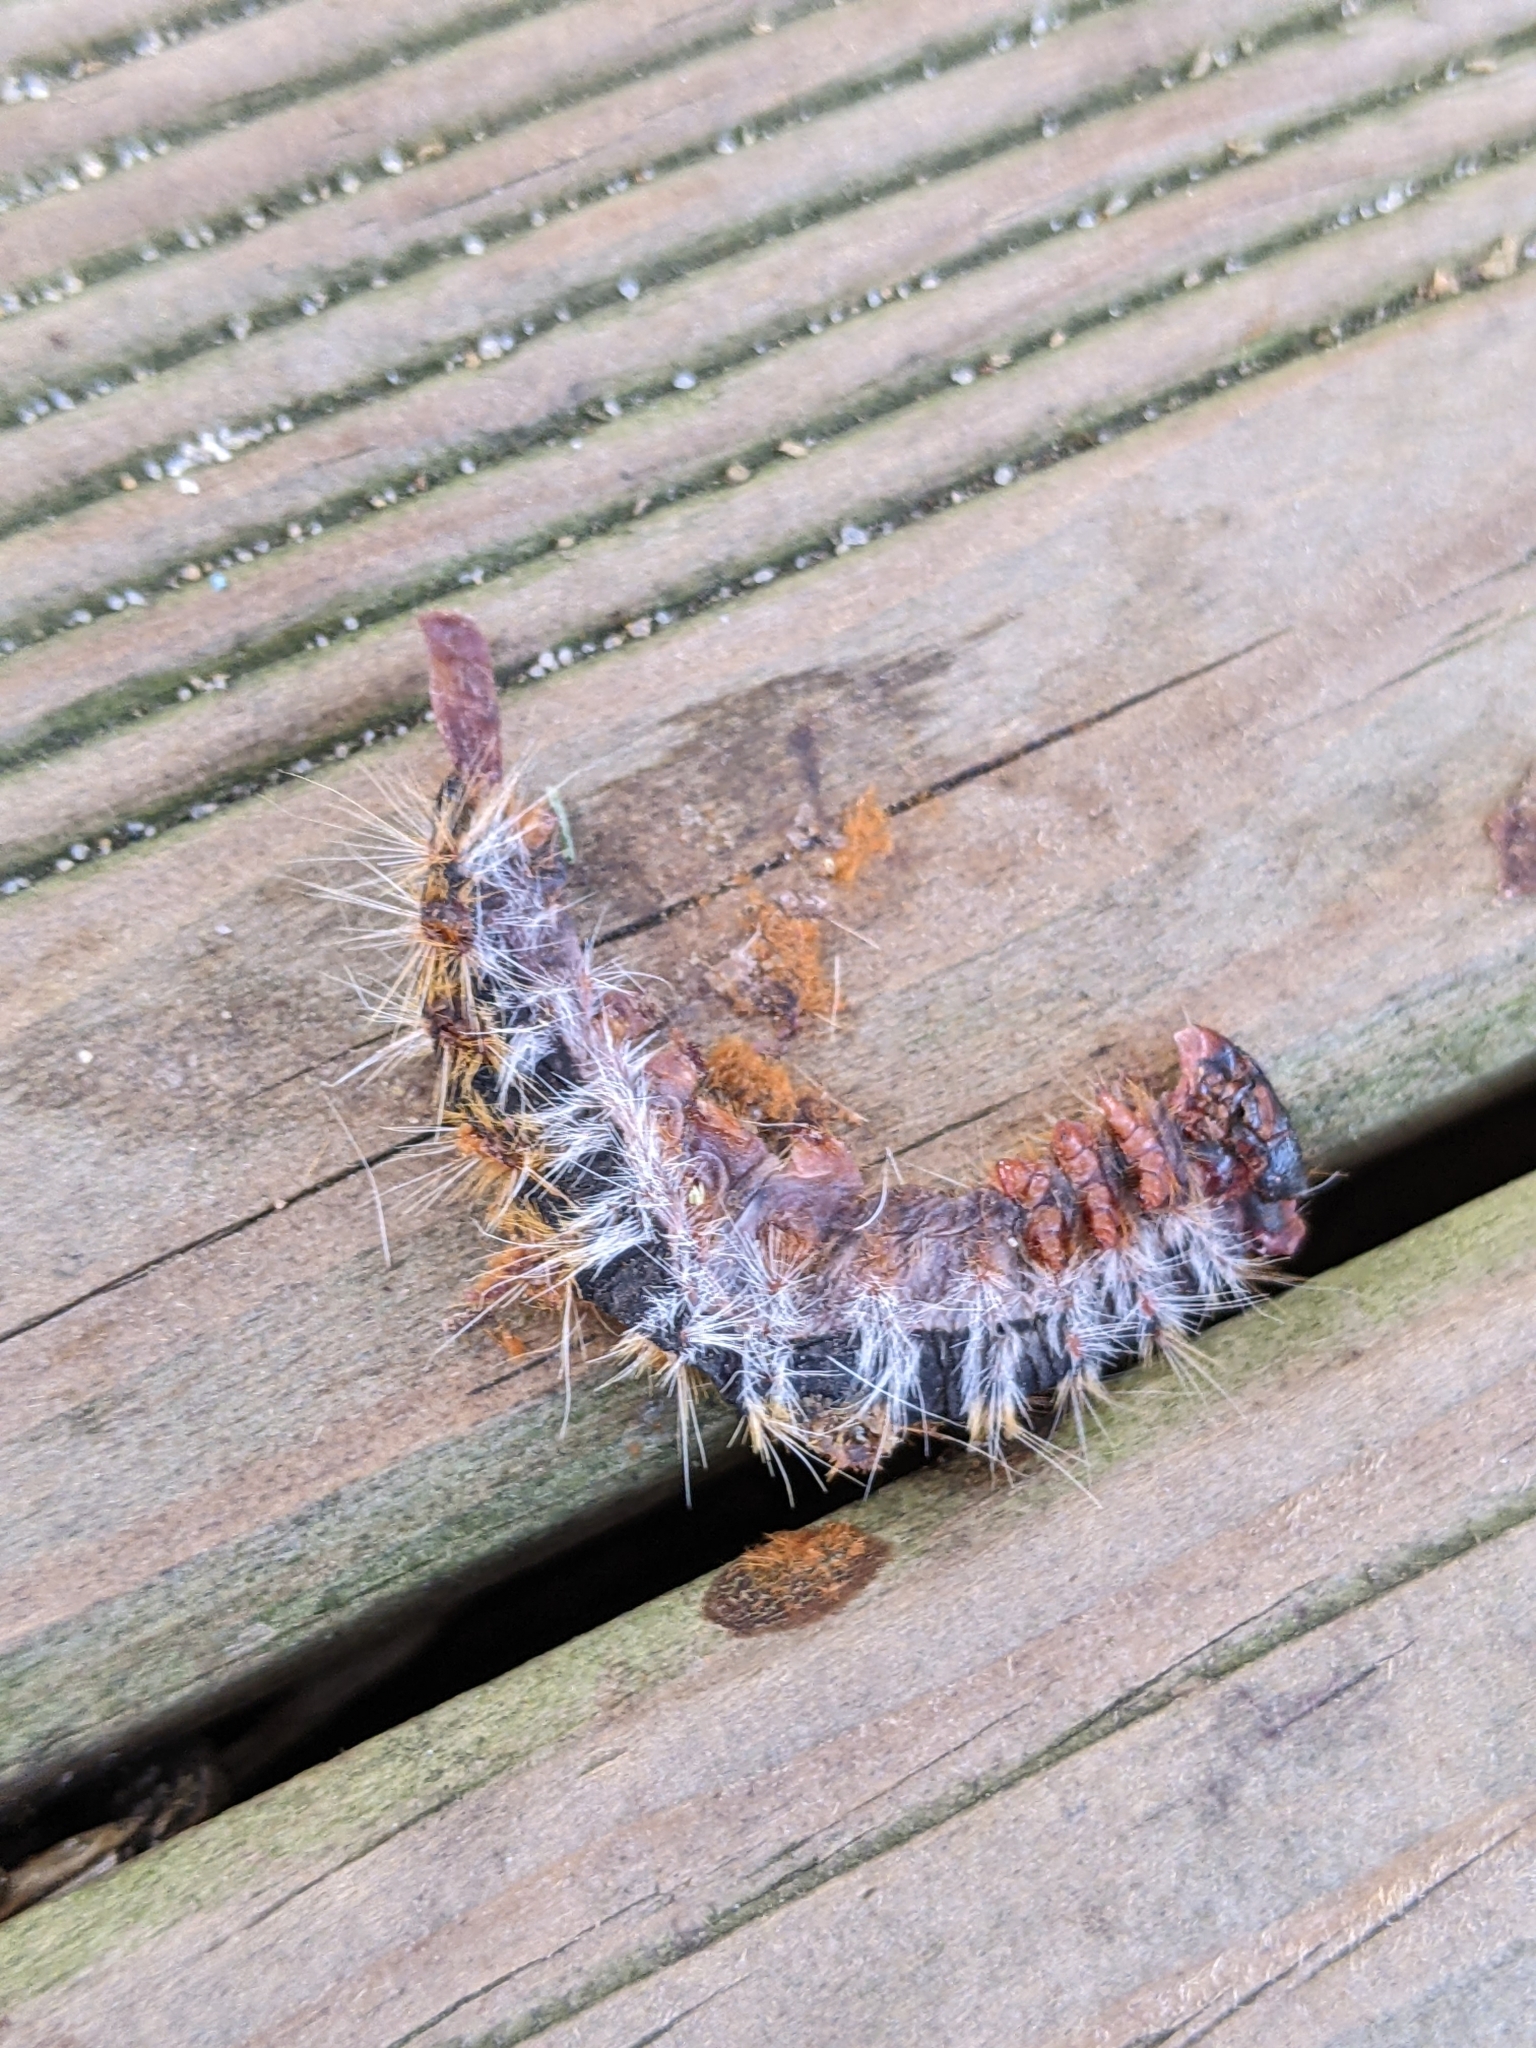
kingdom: Animalia
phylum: Arthropoda
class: Insecta
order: Lepidoptera
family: Notodontidae
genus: Thaumetopoea
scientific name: Thaumetopoea pityocampa
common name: Pine processionary
